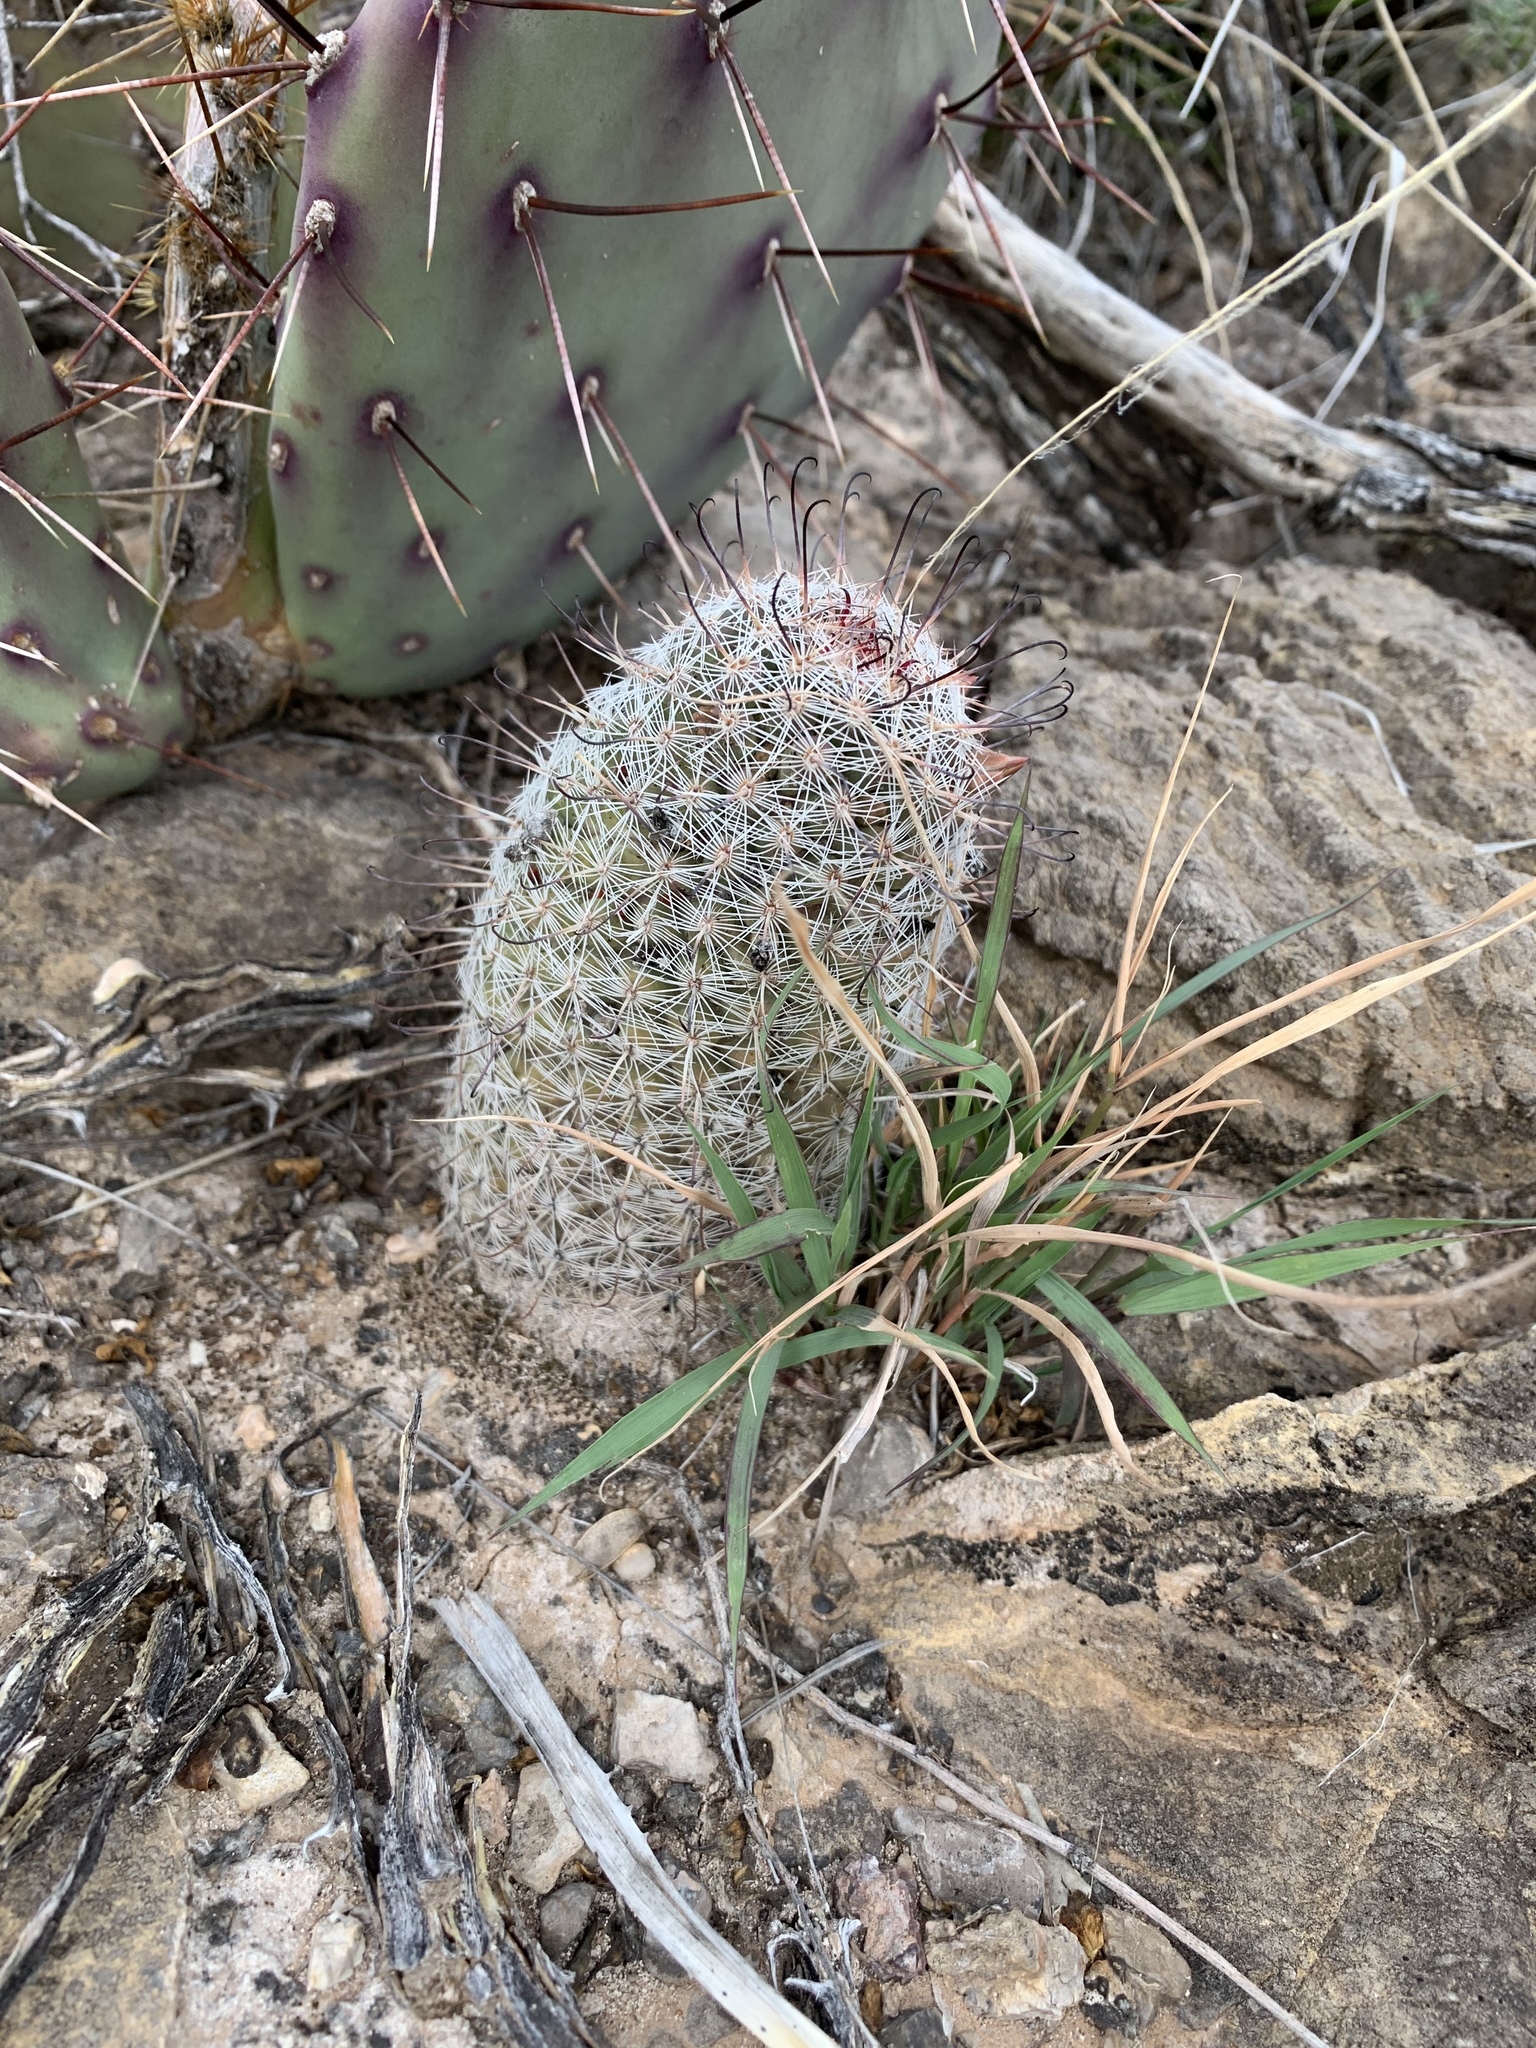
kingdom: Plantae
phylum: Tracheophyta
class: Magnoliopsida
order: Caryophyllales
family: Cactaceae
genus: Cochemiea
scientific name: Cochemiea grahamii
